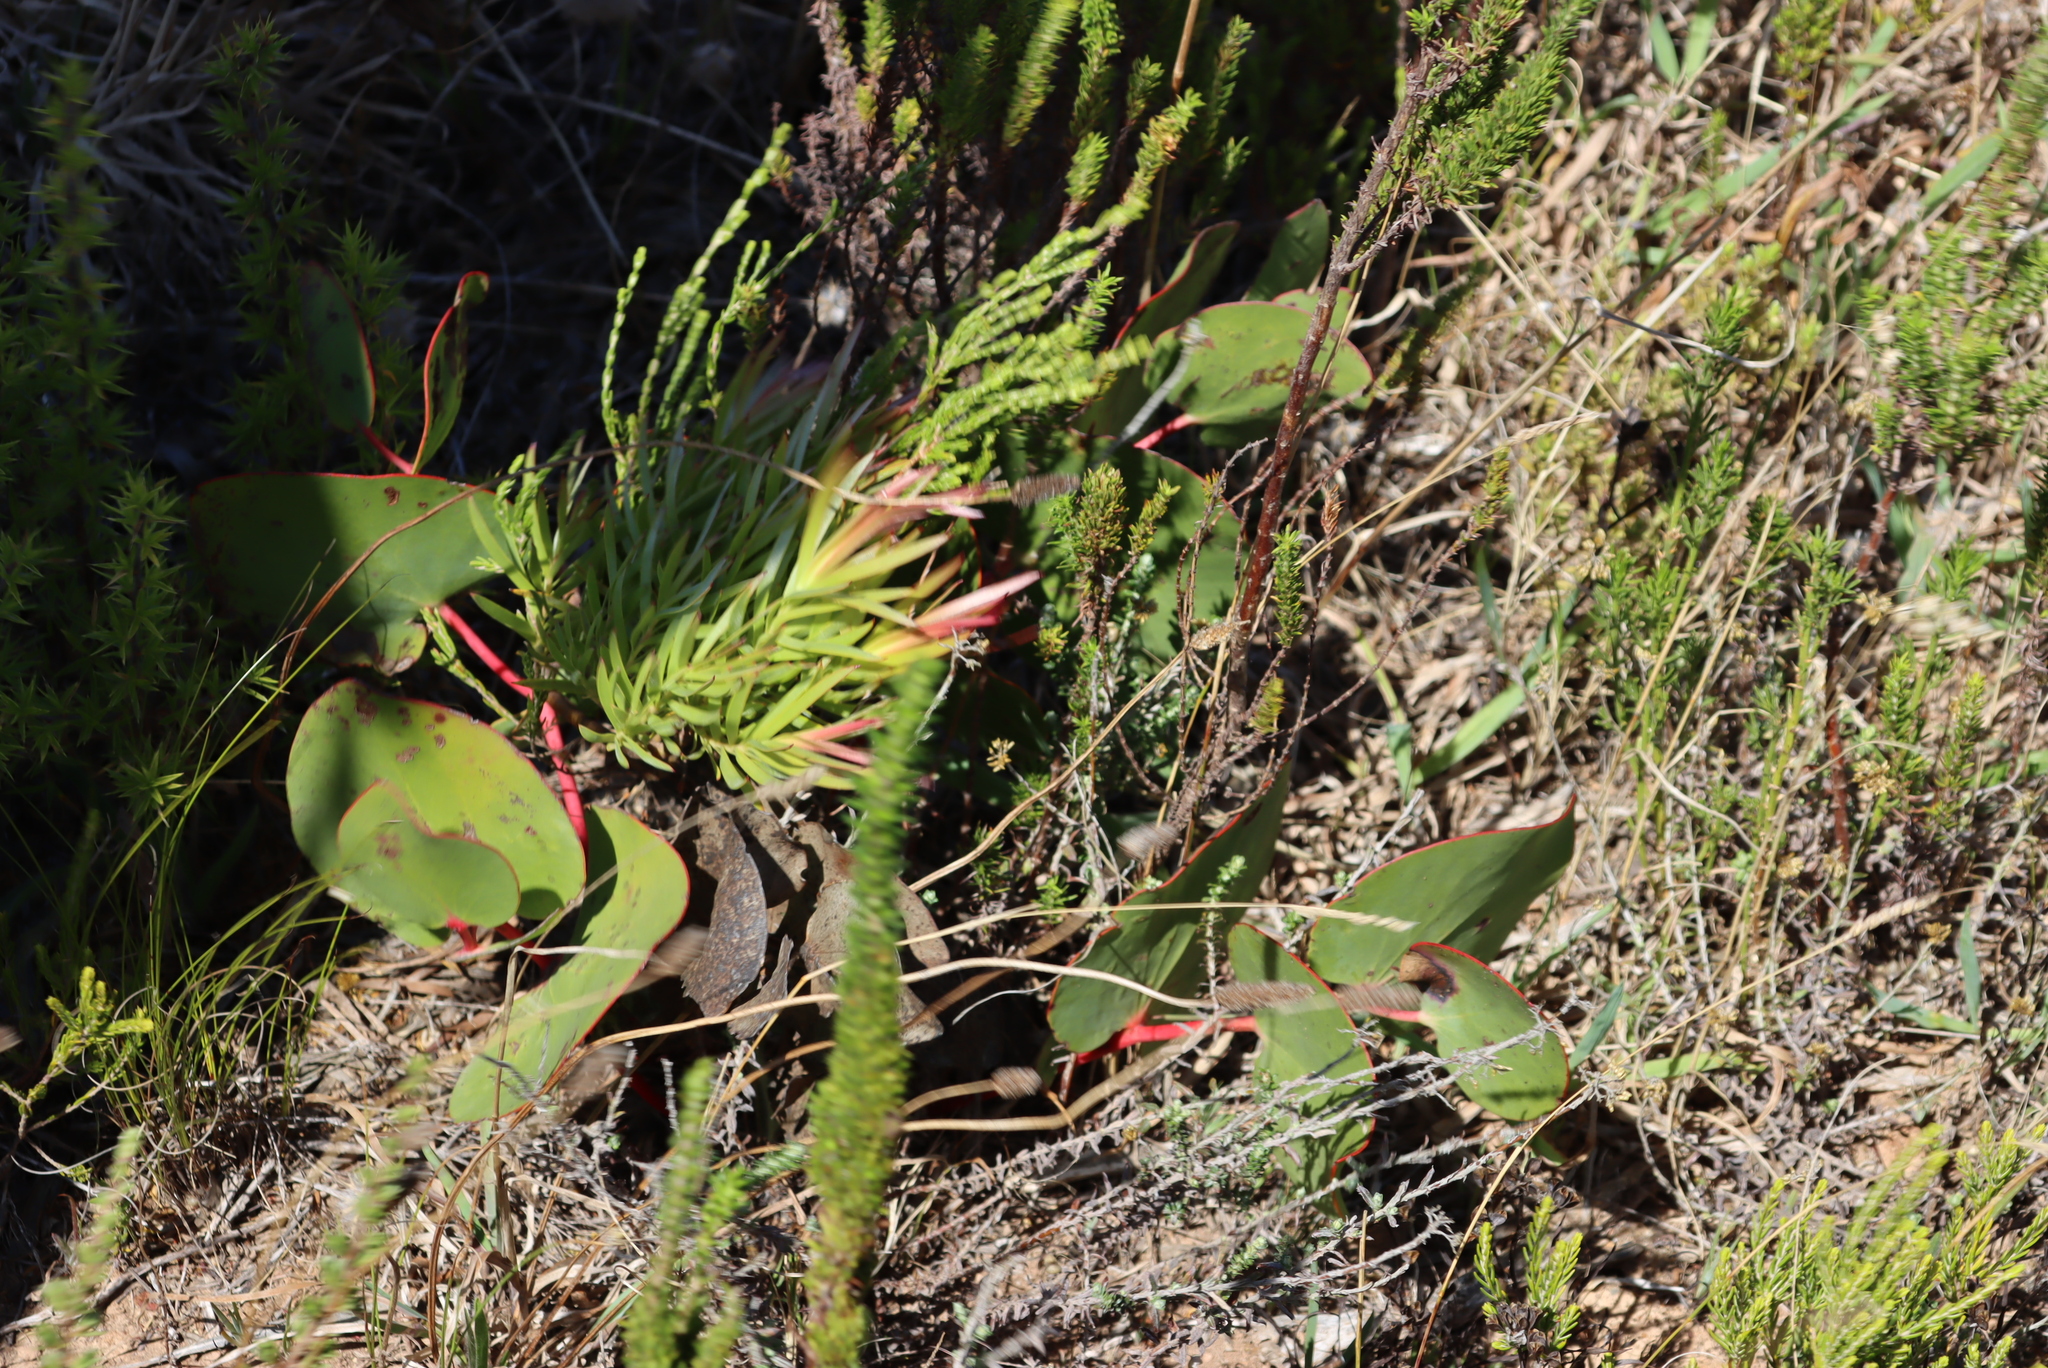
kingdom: Plantae
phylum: Tracheophyta
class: Magnoliopsida
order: Proteales
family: Proteaceae
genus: Protea
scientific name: Protea cordata
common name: Heart-leaf sugarbush
